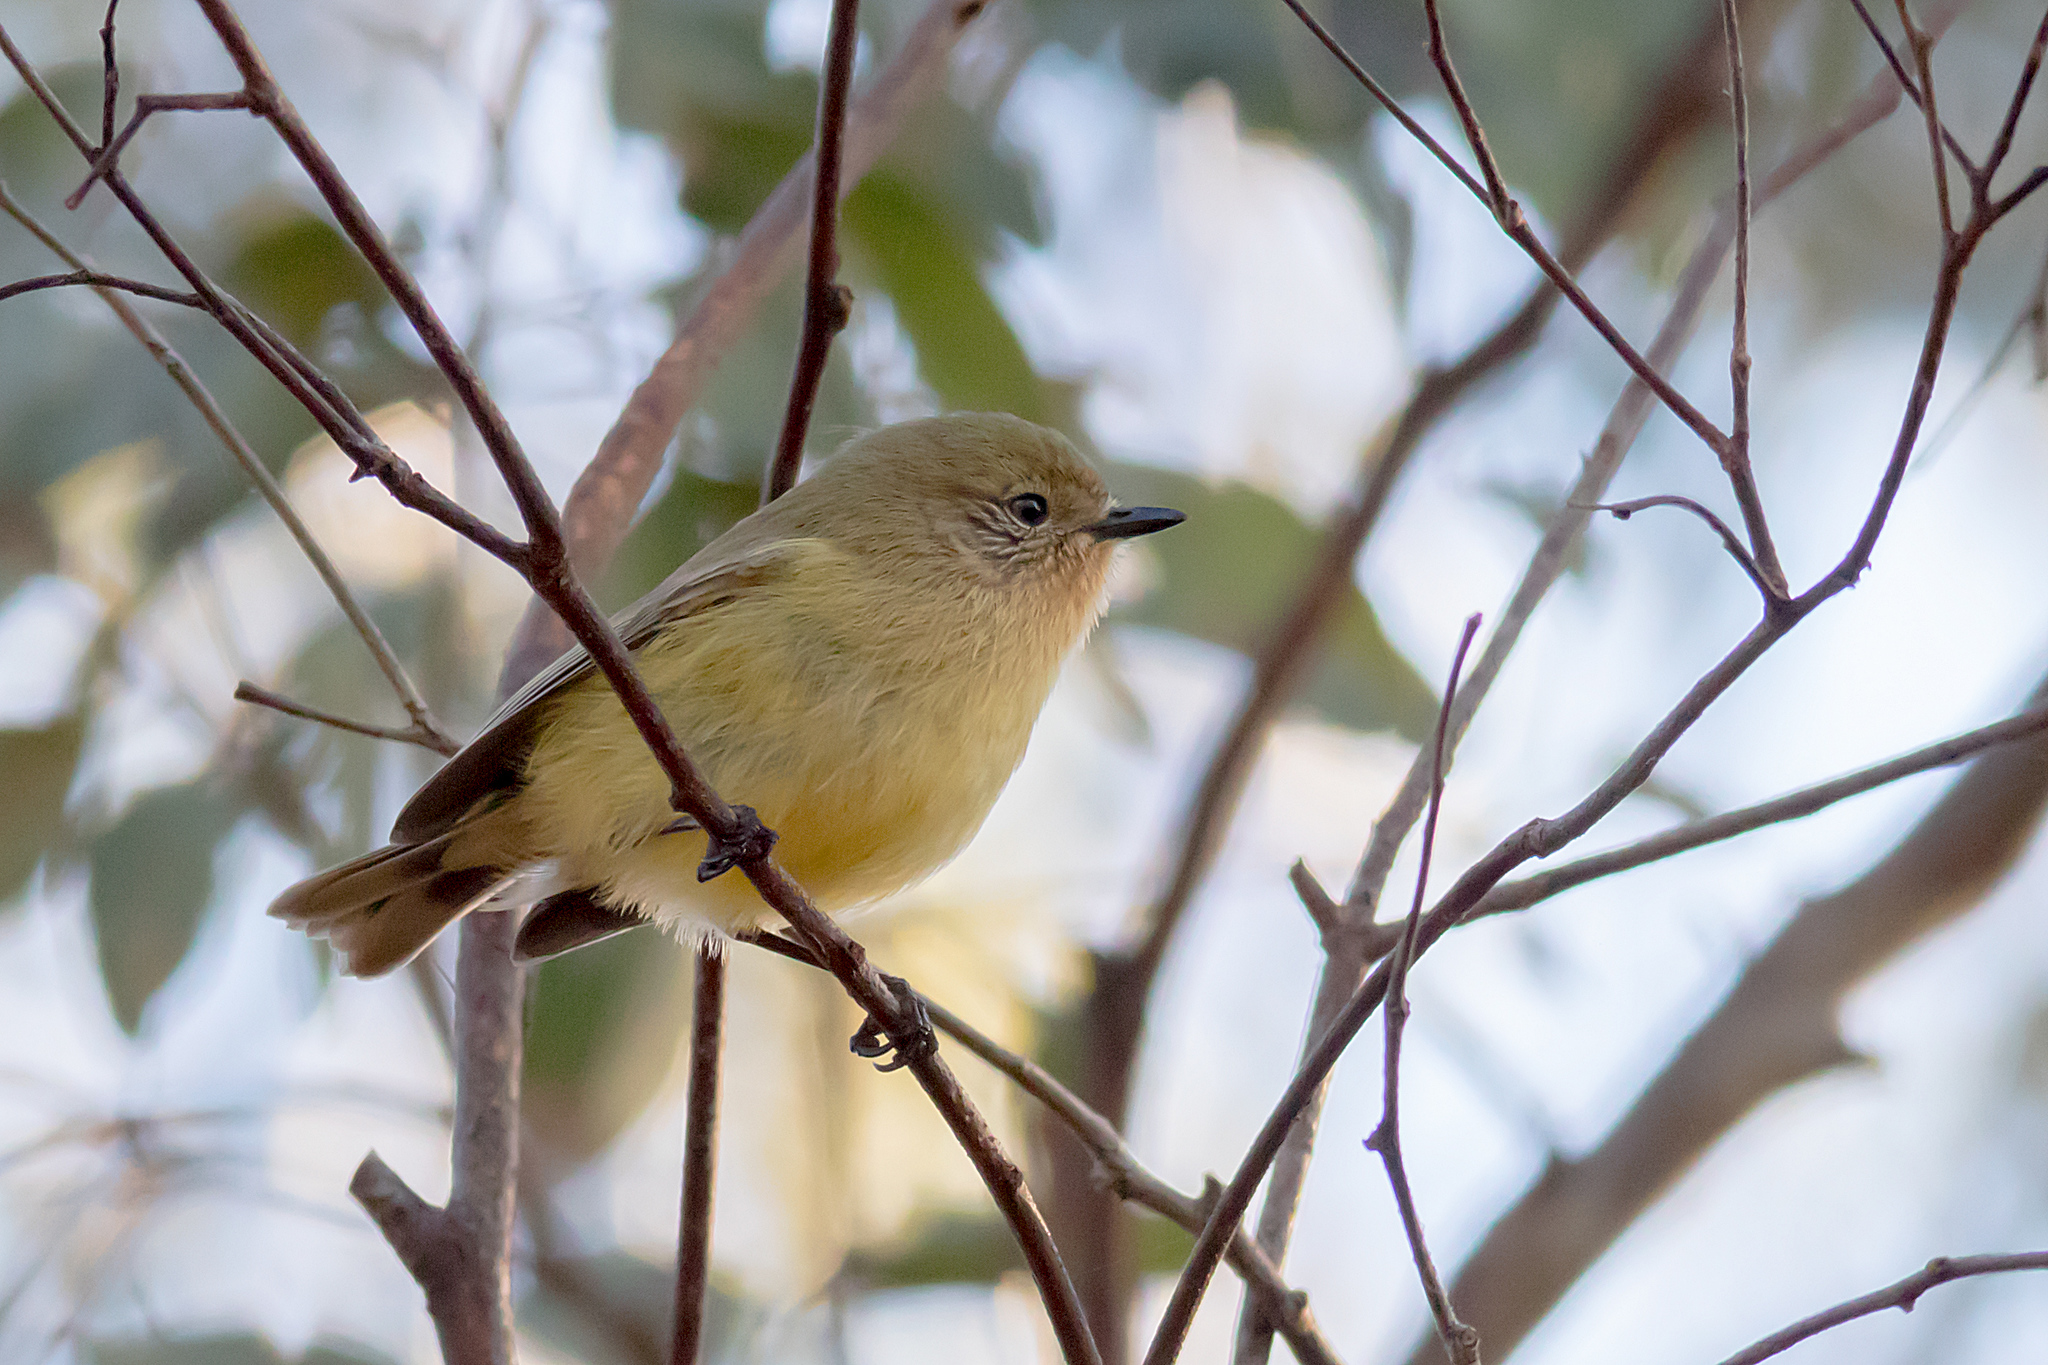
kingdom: Animalia
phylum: Chordata
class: Aves
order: Passeriformes
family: Acanthizidae
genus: Acanthiza
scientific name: Acanthiza nana
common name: Yellow thornbill
